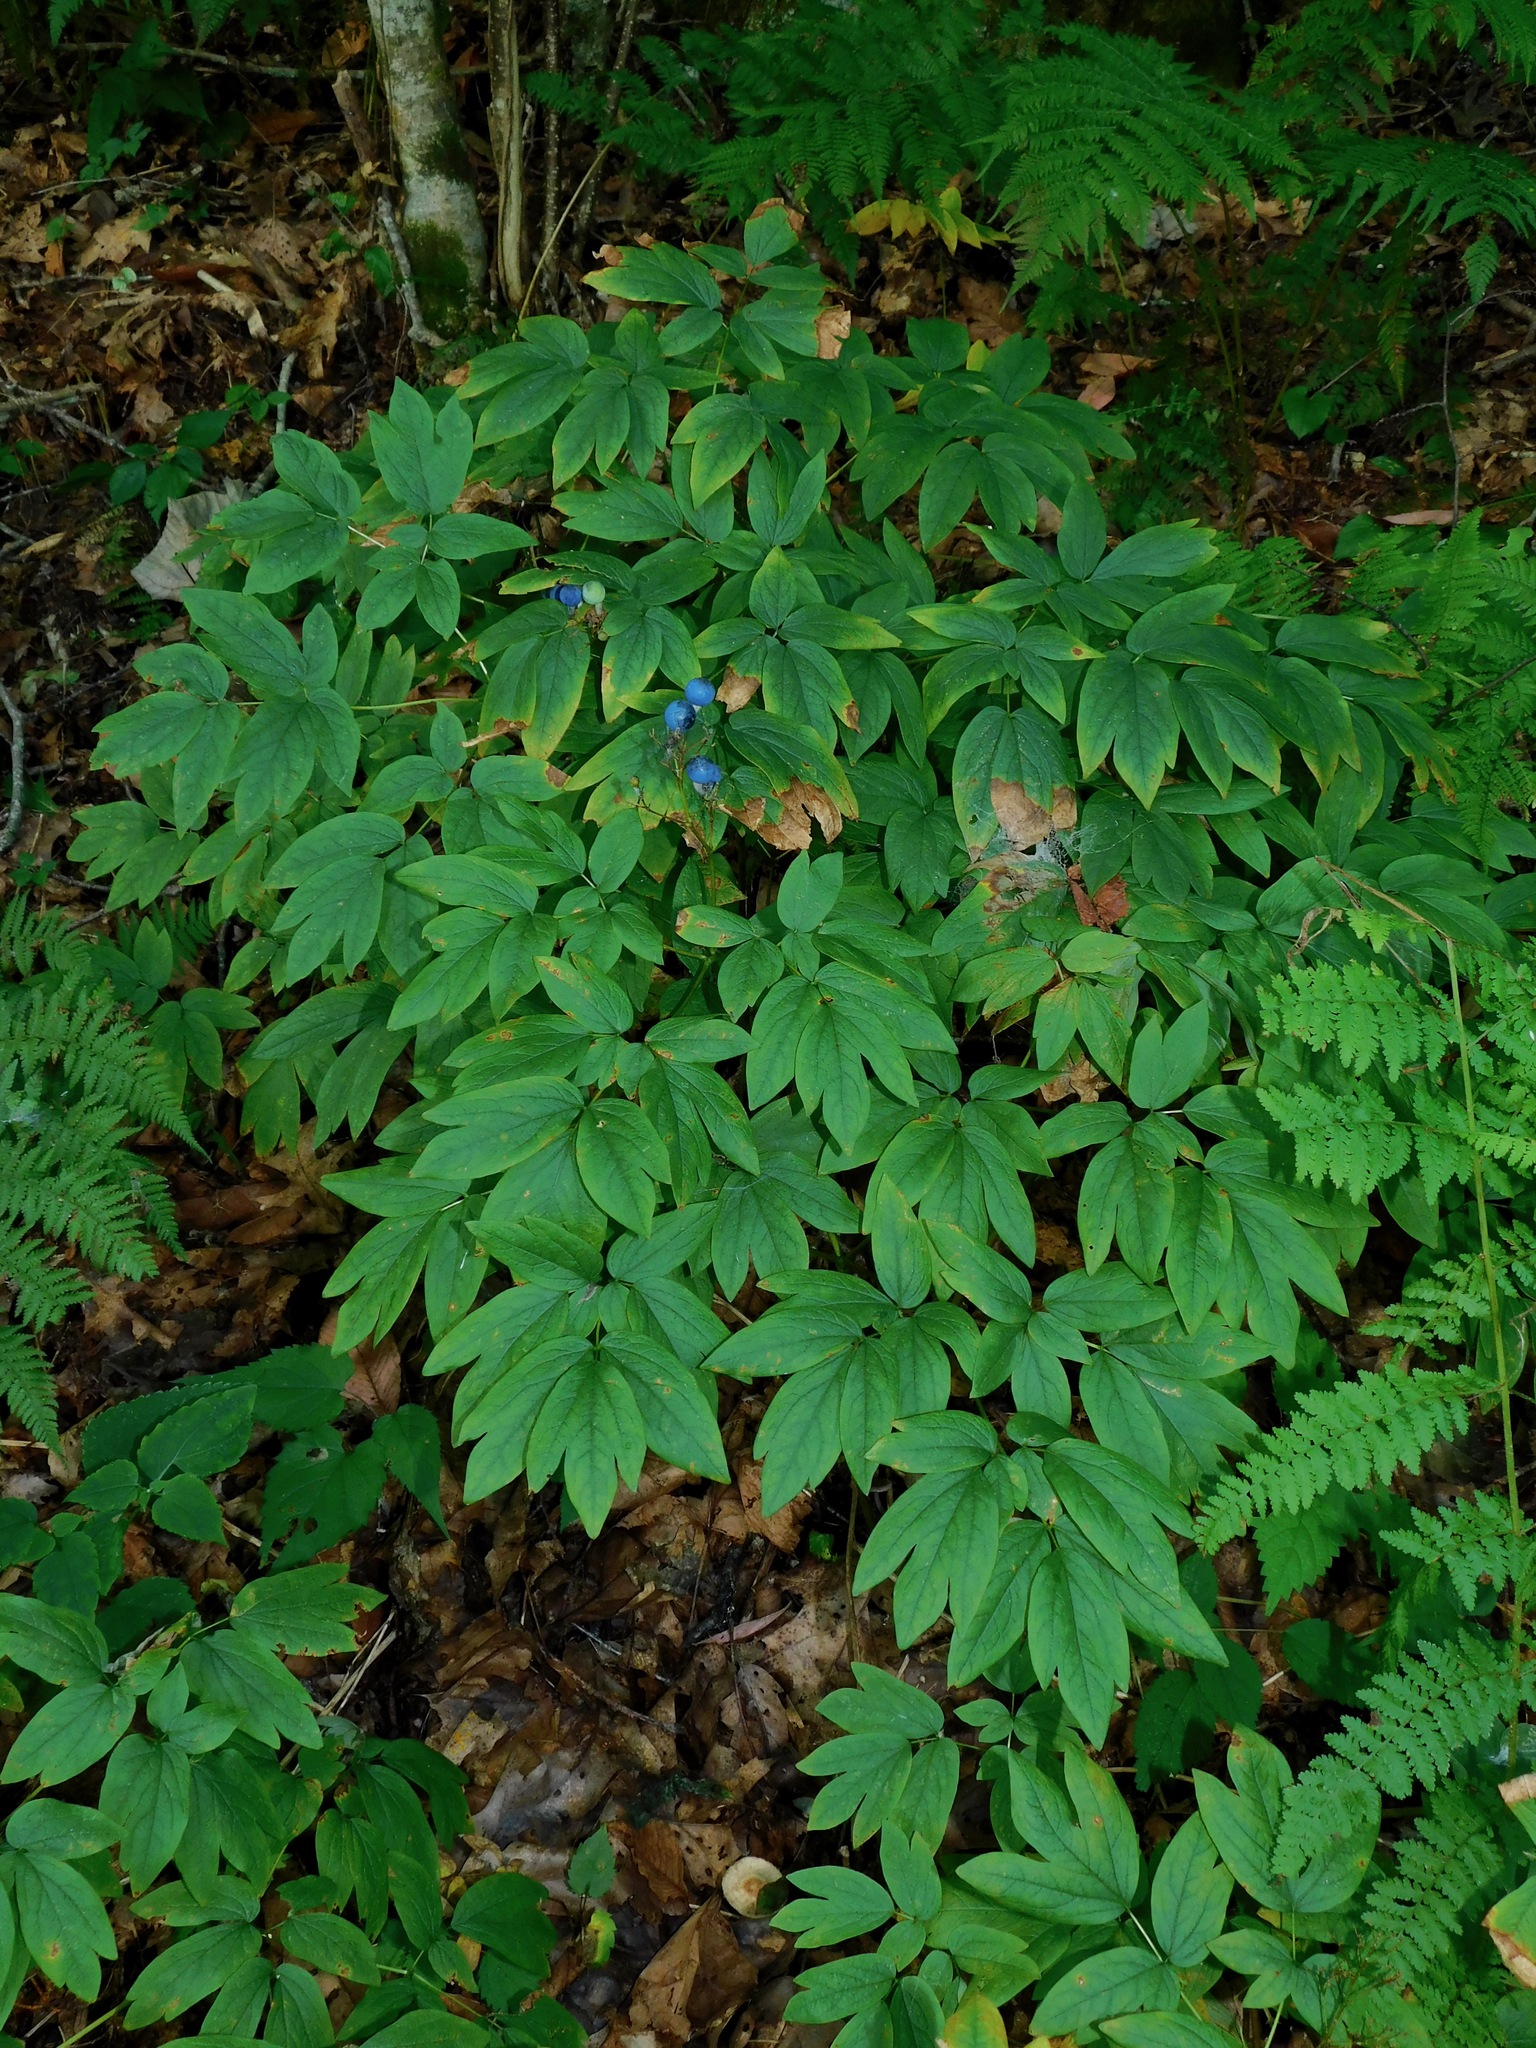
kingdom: Plantae
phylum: Tracheophyta
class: Magnoliopsida
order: Ranunculales
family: Berberidaceae
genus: Caulophyllum
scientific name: Caulophyllum thalictroides
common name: Blue cohosh
